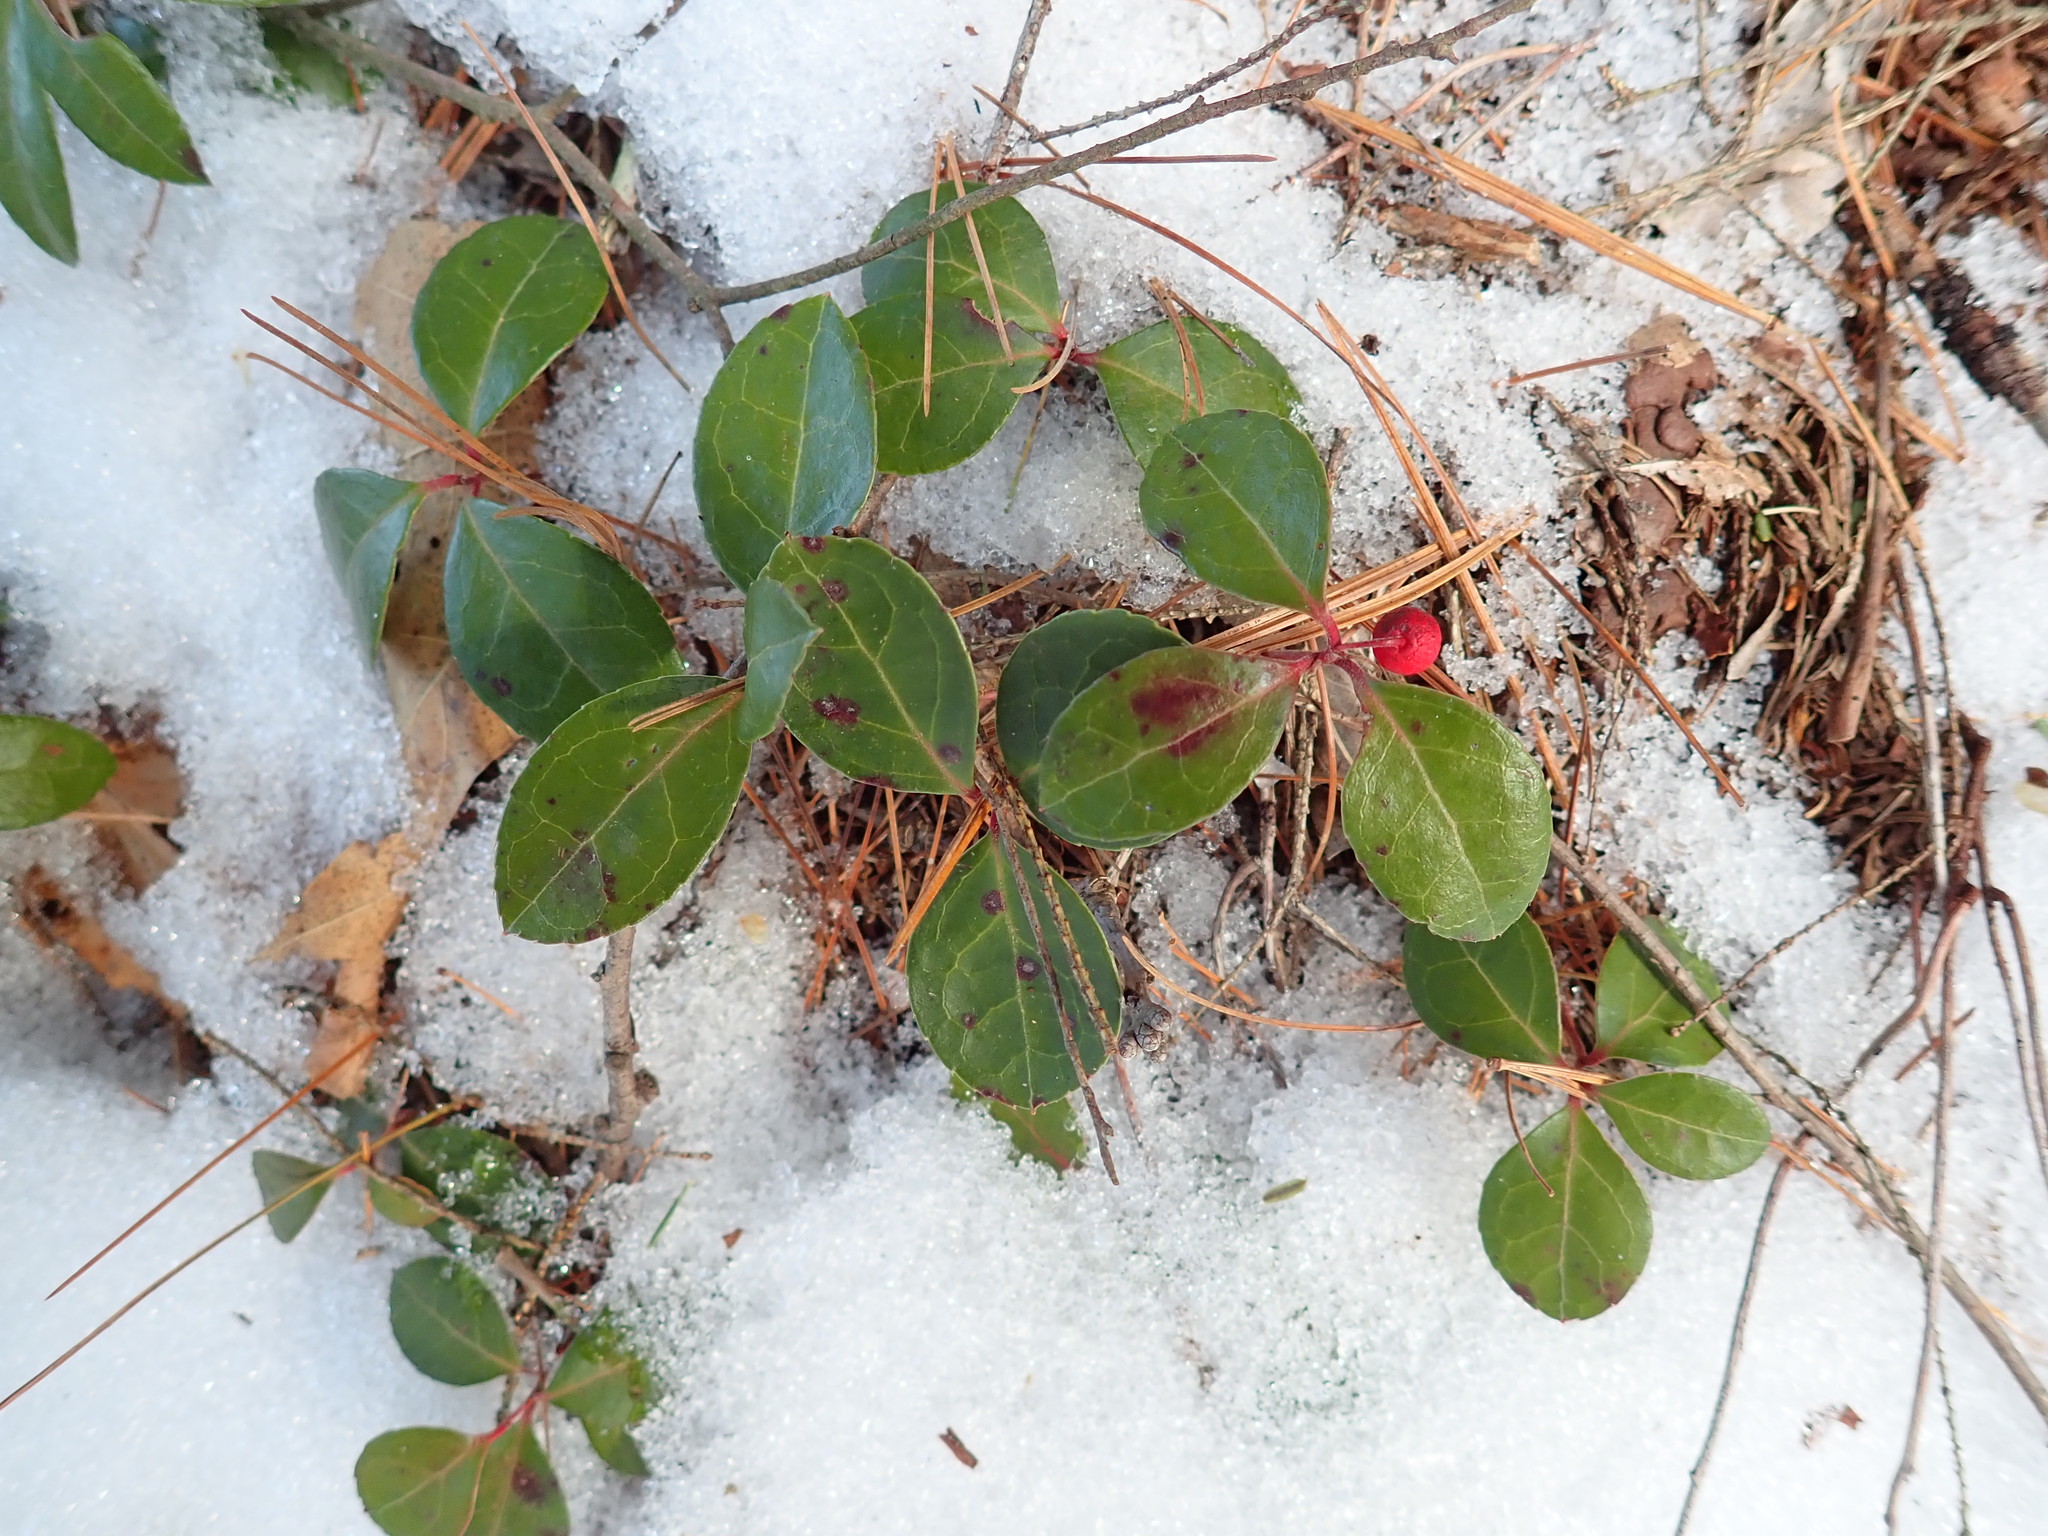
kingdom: Plantae
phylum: Tracheophyta
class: Magnoliopsida
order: Ericales
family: Ericaceae
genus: Gaultheria
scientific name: Gaultheria procumbens
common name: Checkerberry
